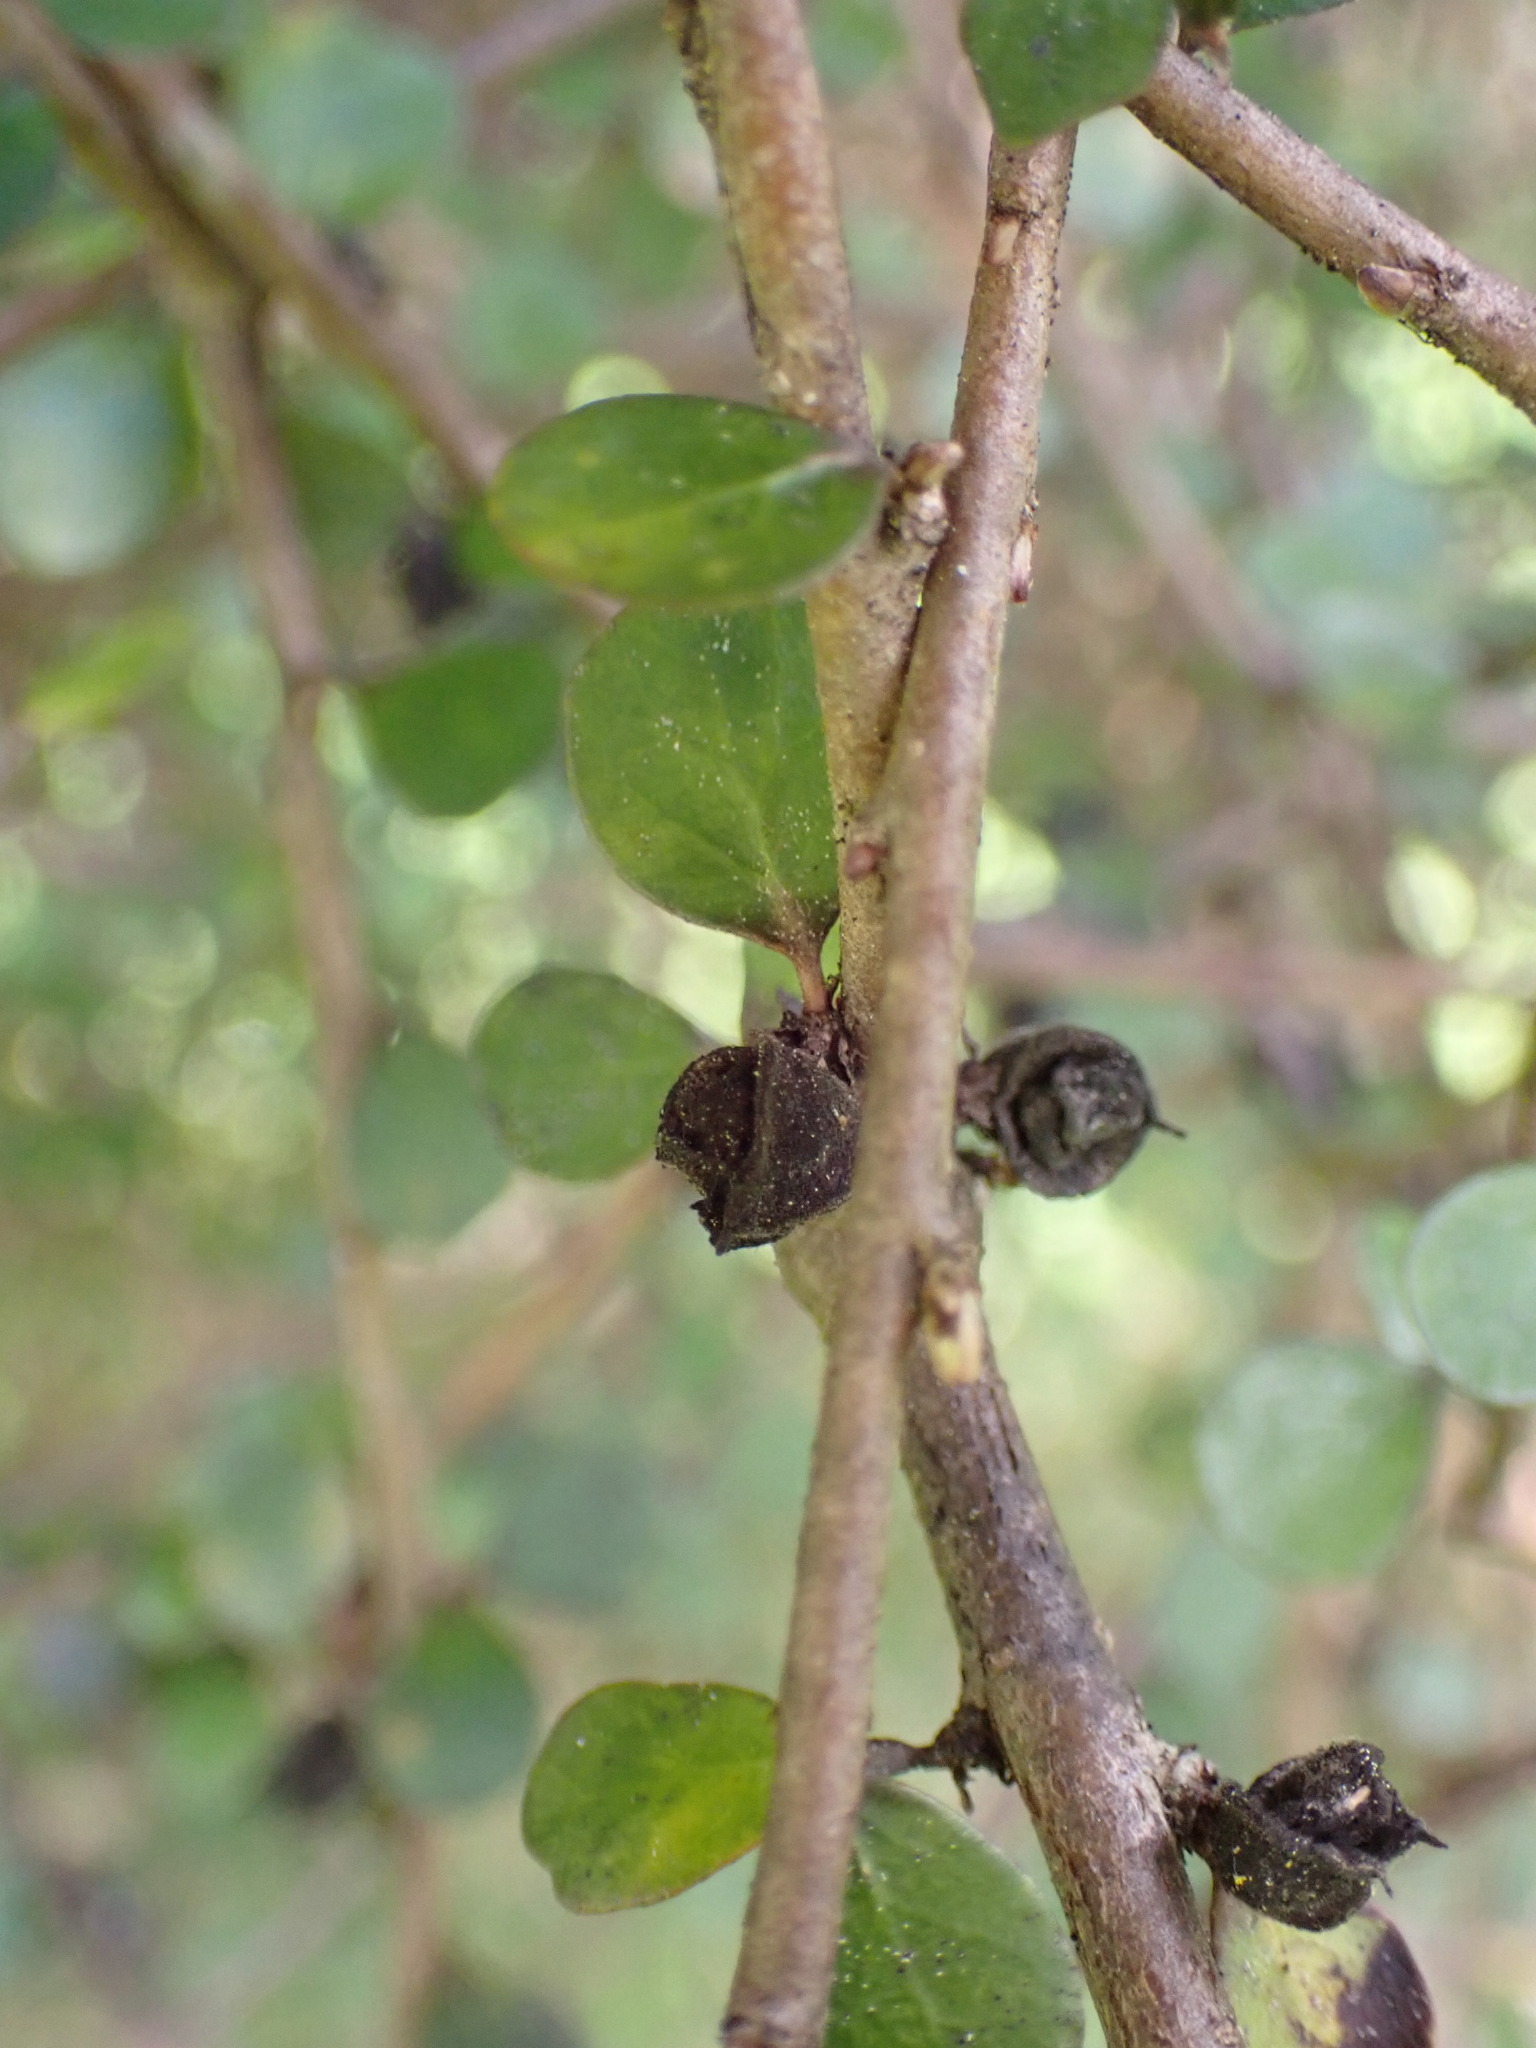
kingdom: Plantae
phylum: Tracheophyta
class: Magnoliopsida
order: Apiales
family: Pittosporaceae
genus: Pittosporum
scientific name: Pittosporum obcordatum
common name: Heart-leaved kohuhu
